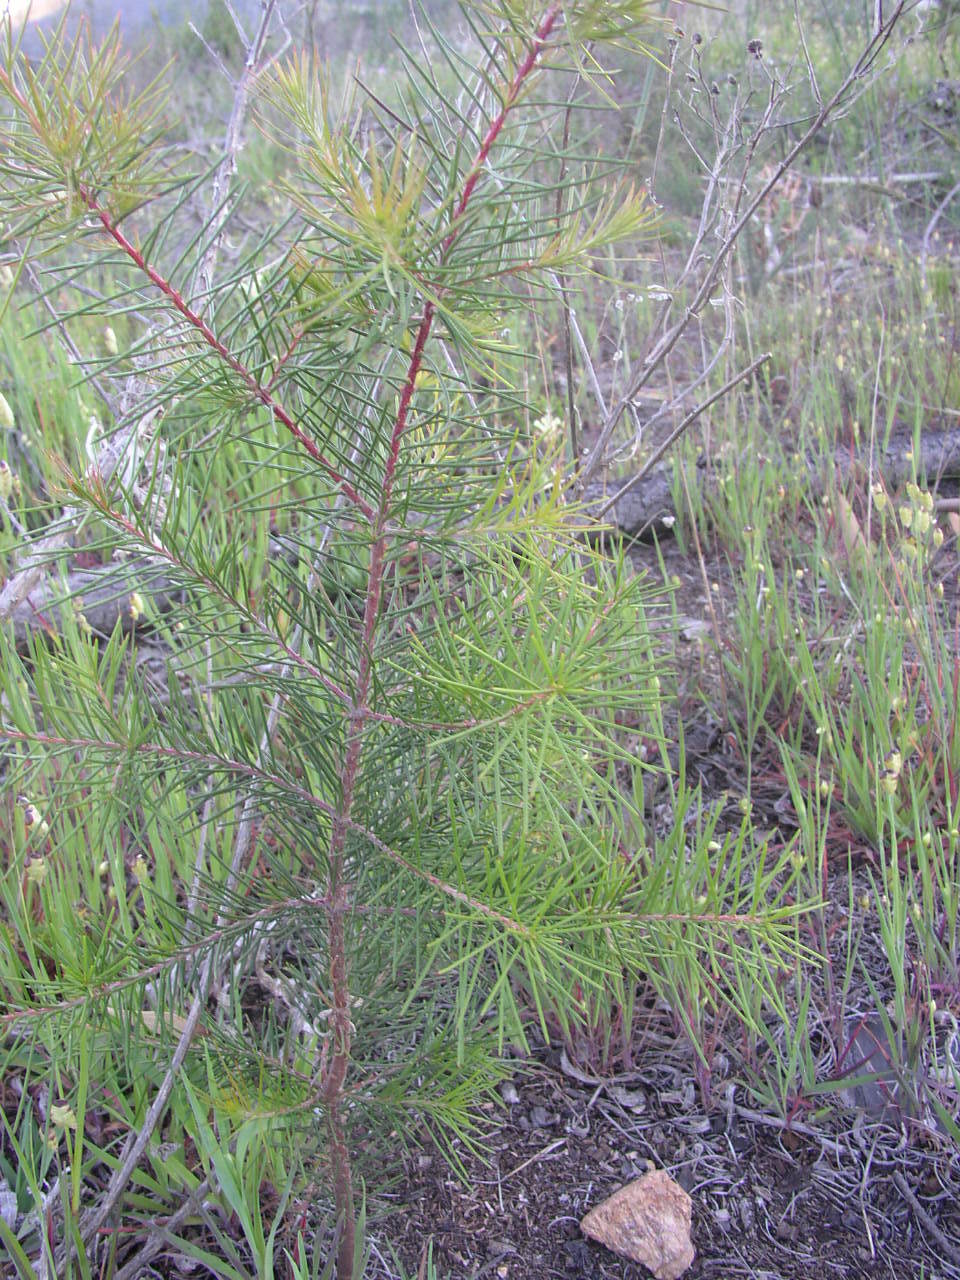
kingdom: Plantae
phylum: Tracheophyta
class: Magnoliopsida
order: Proteales
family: Proteaceae
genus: Hakea
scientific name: Hakea sericea
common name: Needle bush
